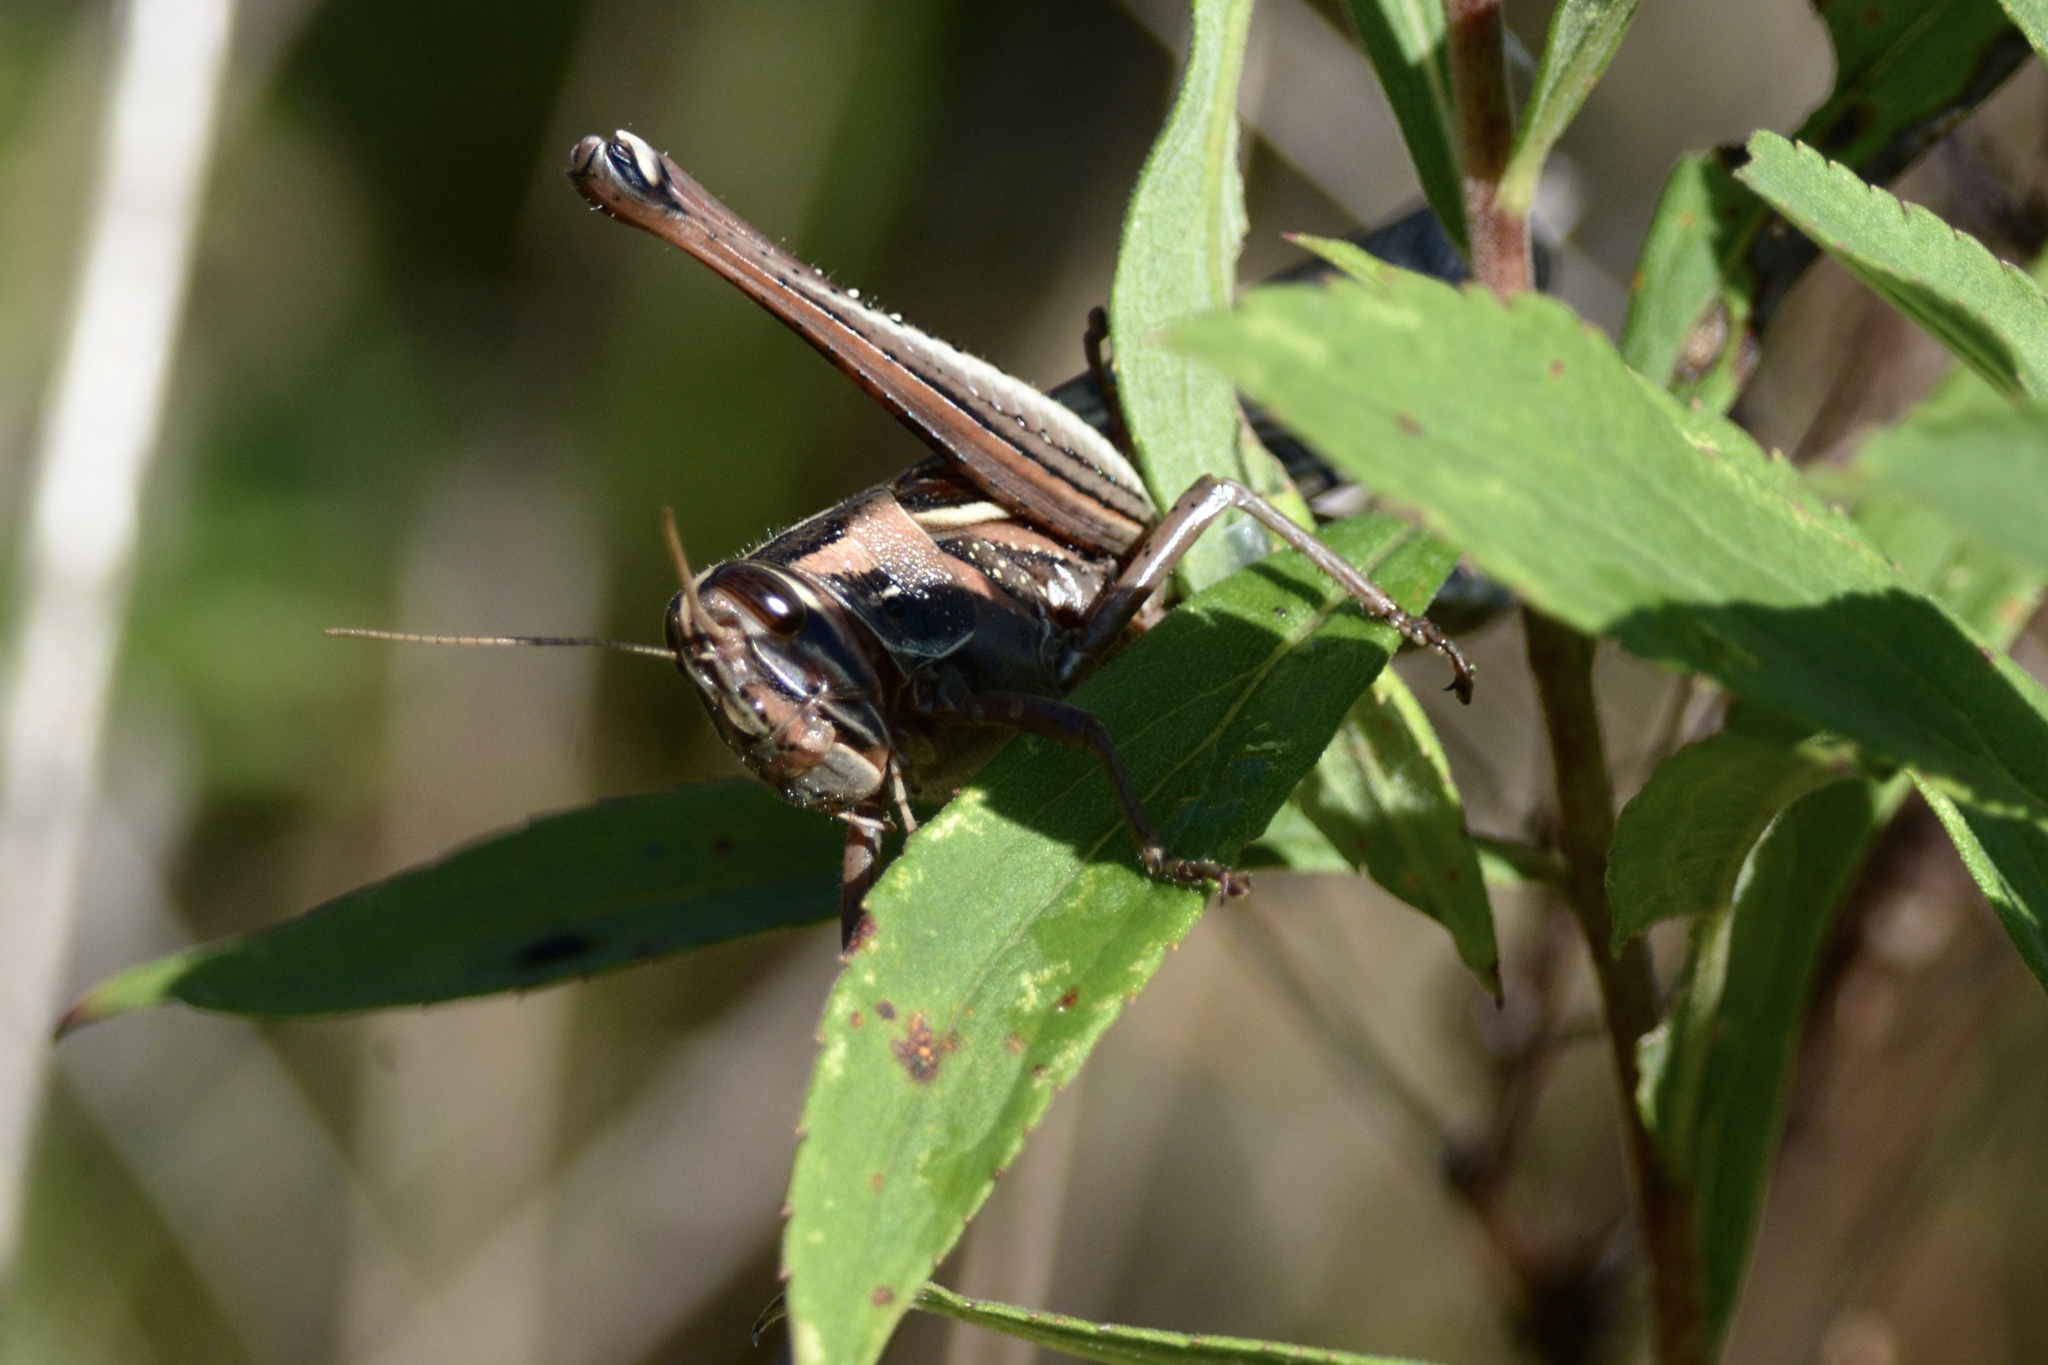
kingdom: Animalia
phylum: Arthropoda
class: Insecta
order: Orthoptera
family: Acrididae
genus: Schistocerca
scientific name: Schistocerca americana
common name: American bird locust
